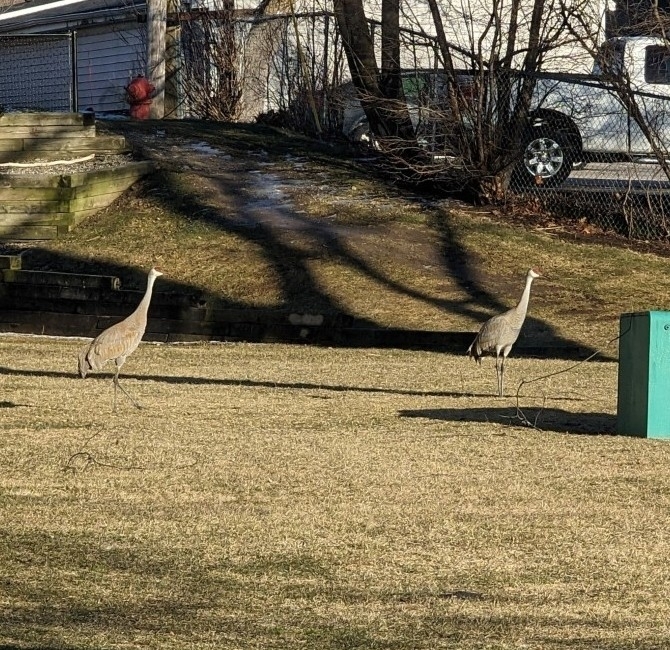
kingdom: Animalia
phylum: Chordata
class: Aves
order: Gruiformes
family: Gruidae
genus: Grus
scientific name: Grus canadensis
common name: Sandhill crane
